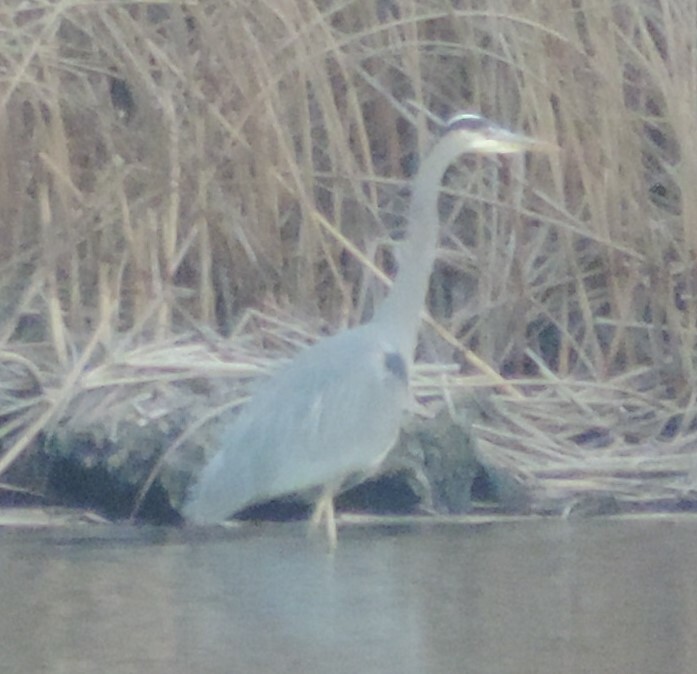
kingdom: Animalia
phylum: Chordata
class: Aves
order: Pelecaniformes
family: Ardeidae
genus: Ardea
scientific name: Ardea herodias
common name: Great blue heron
